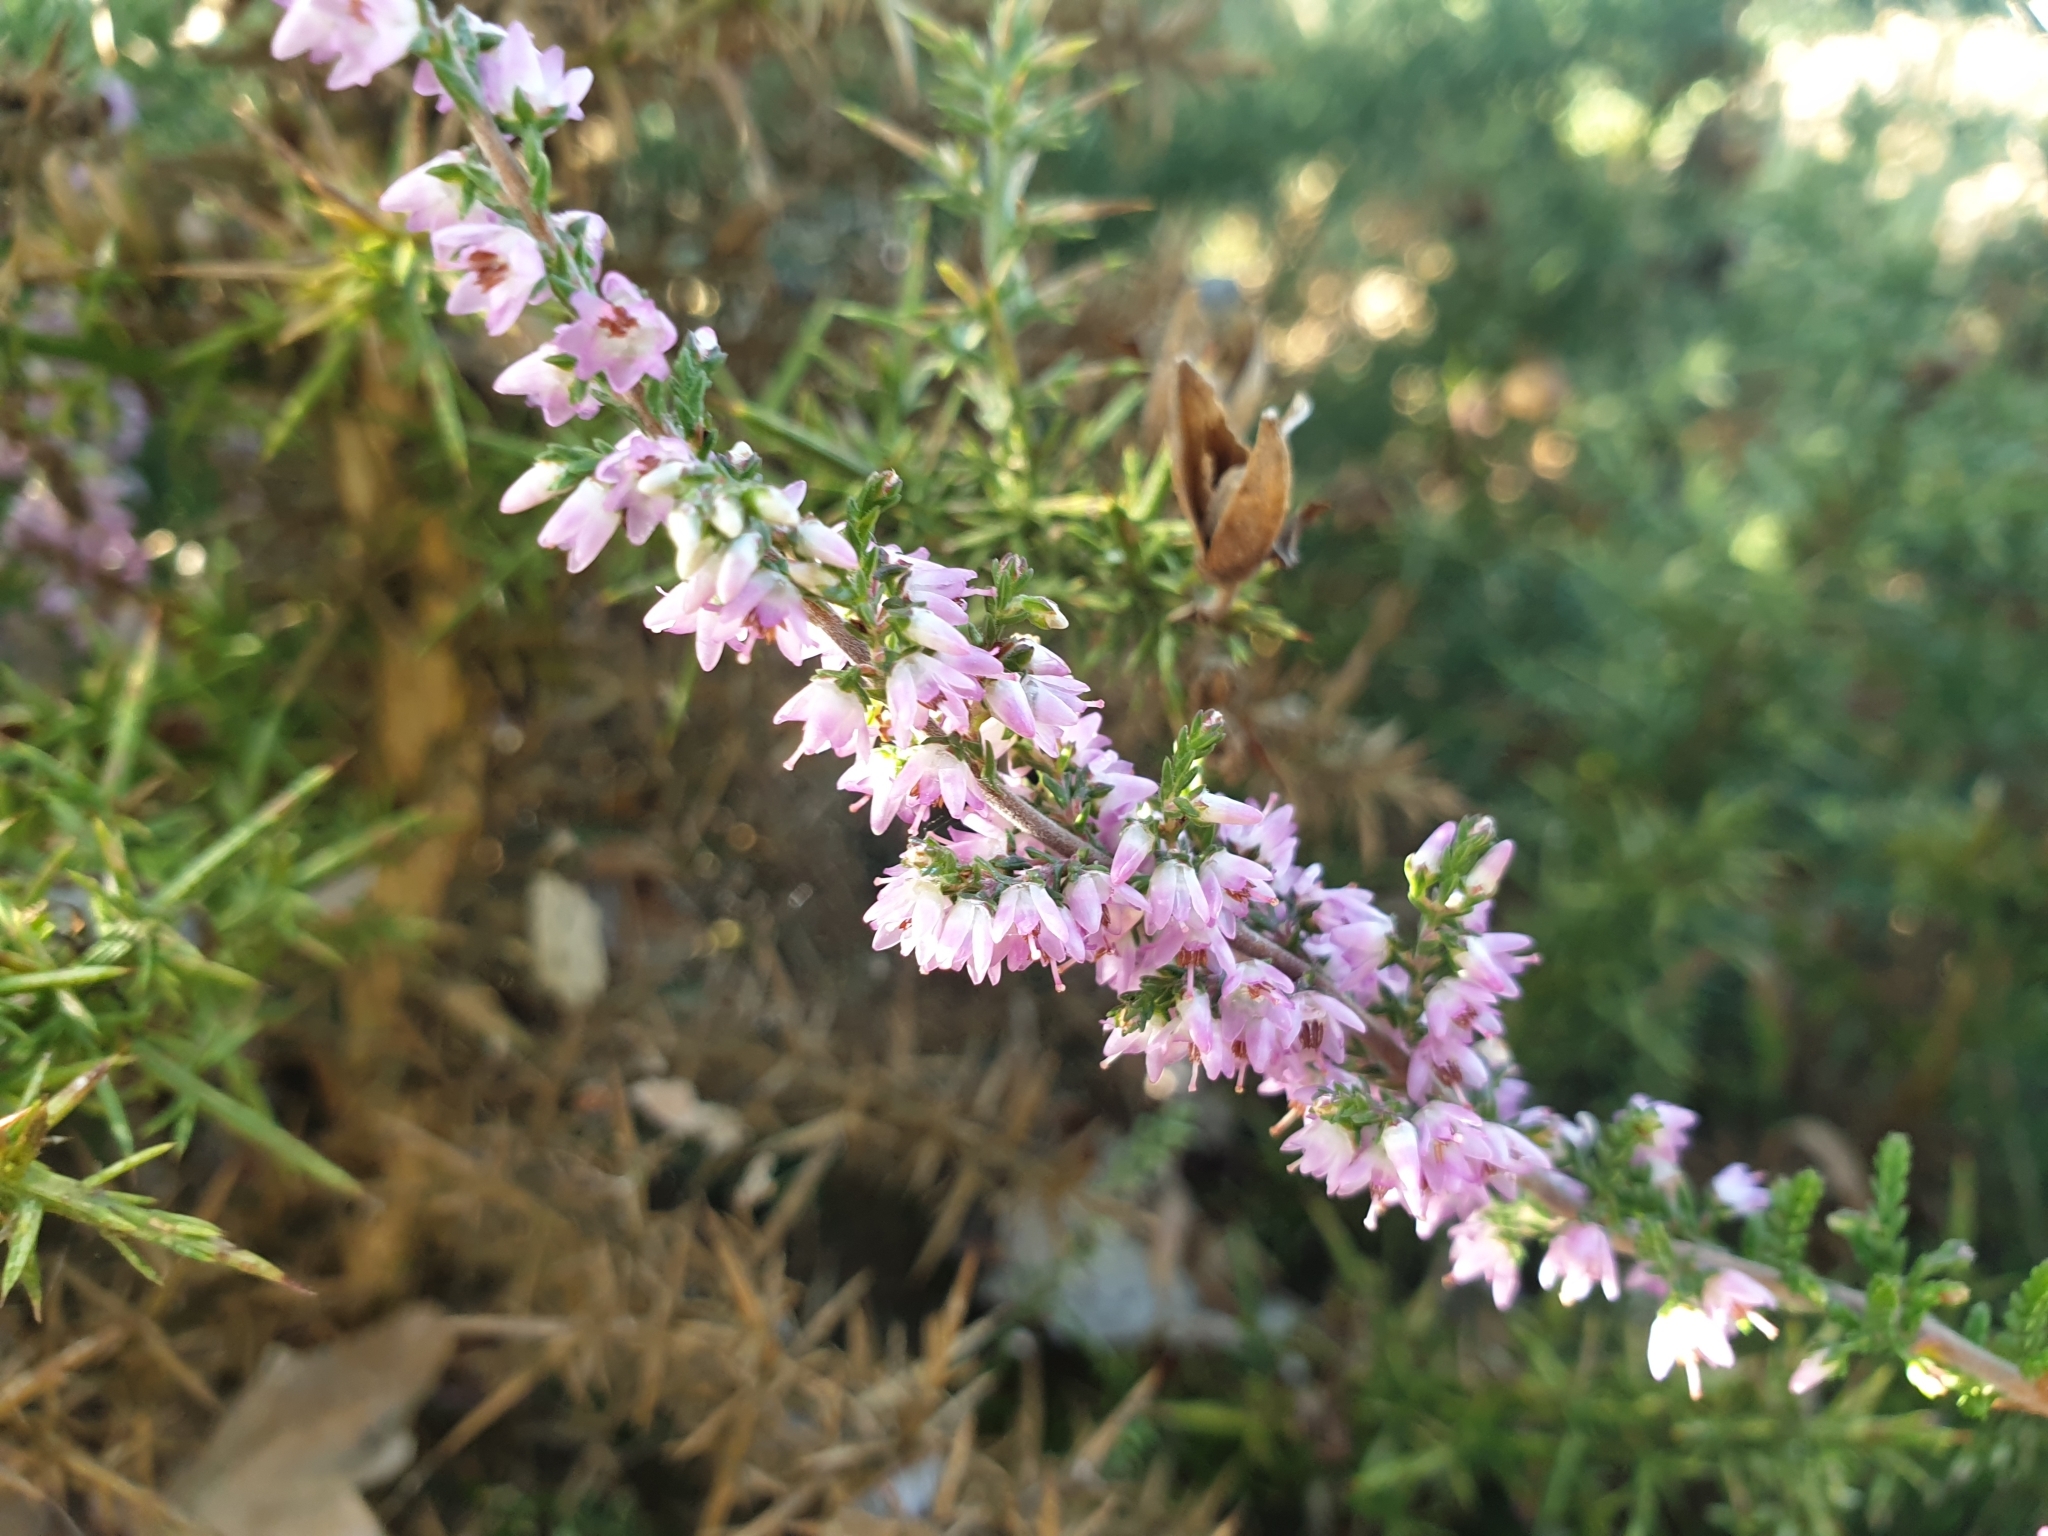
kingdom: Plantae
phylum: Tracheophyta
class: Magnoliopsida
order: Ericales
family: Ericaceae
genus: Calluna
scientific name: Calluna vulgaris
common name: Heather
